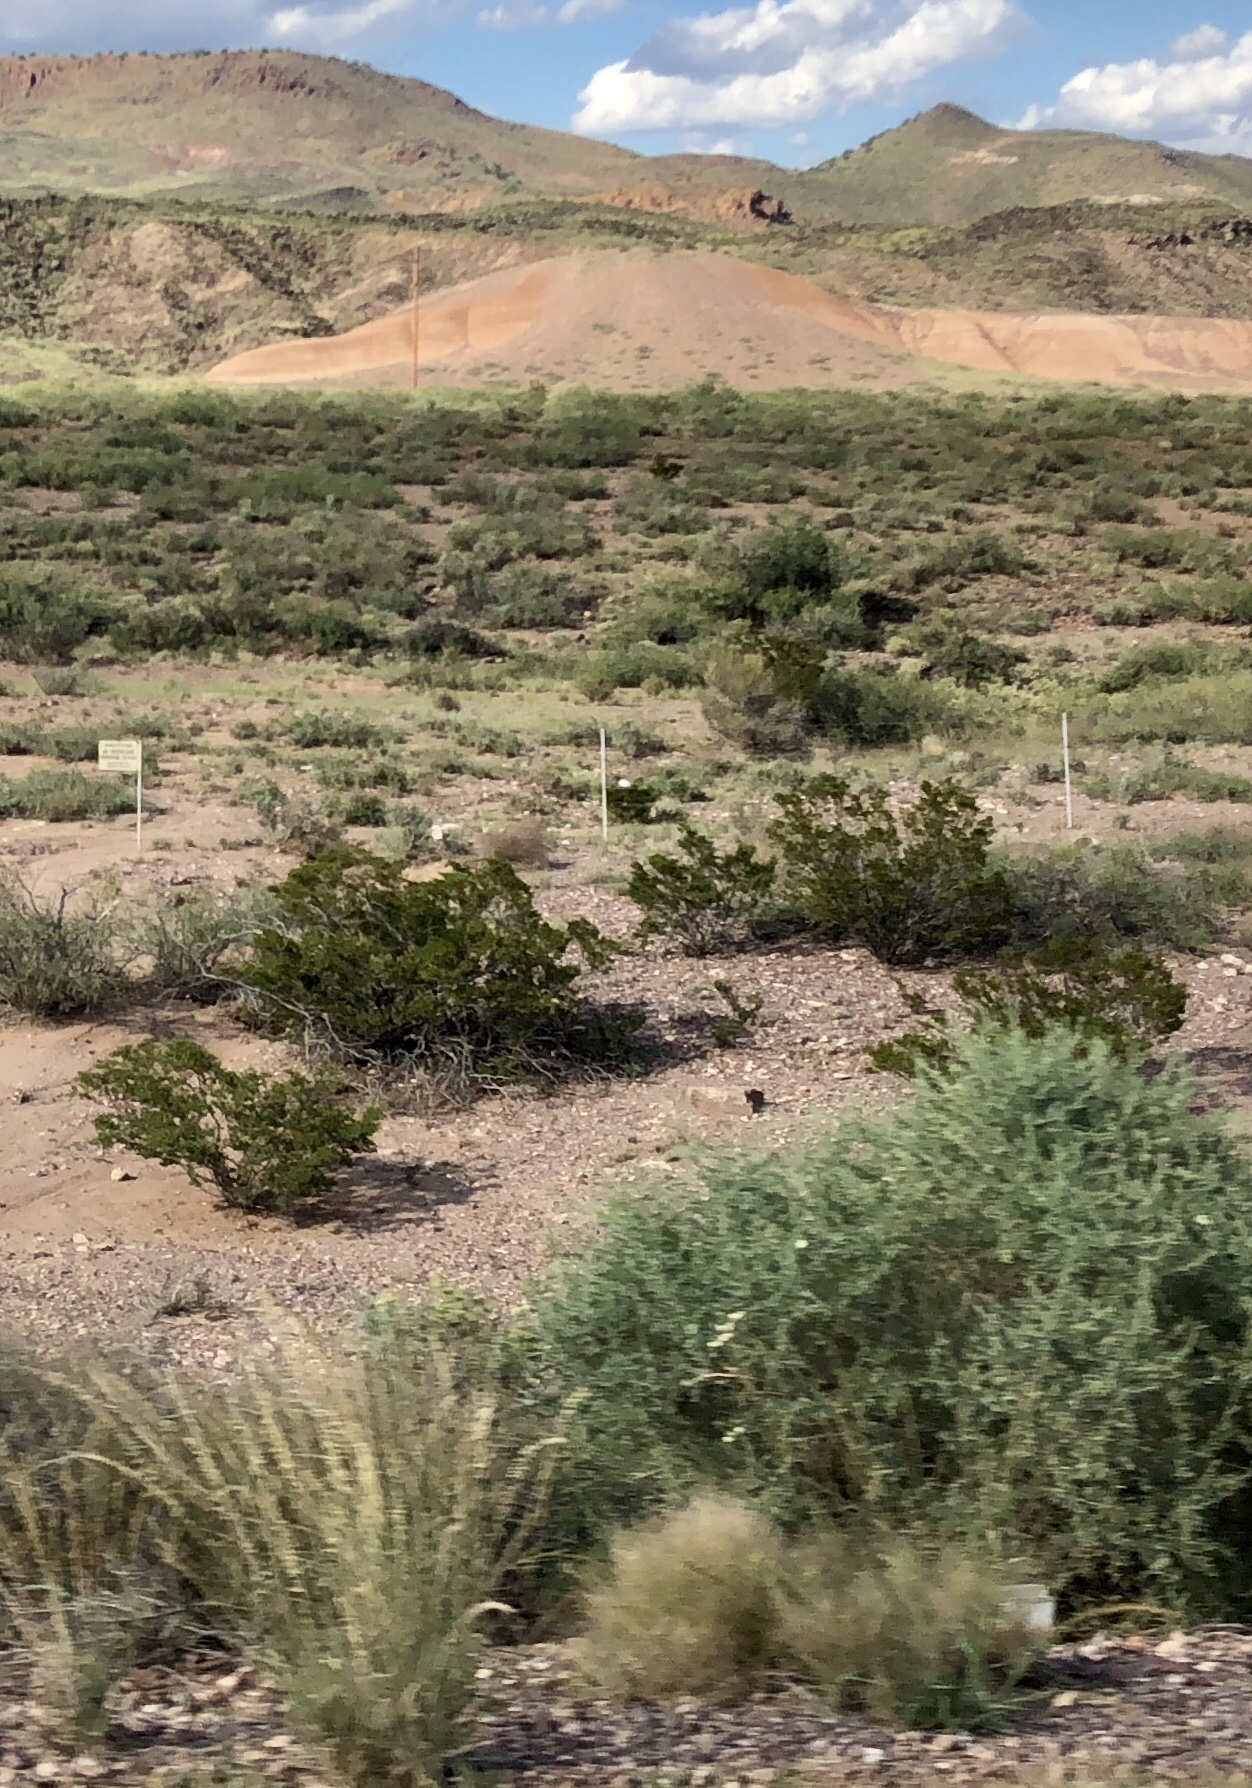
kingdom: Plantae
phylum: Tracheophyta
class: Magnoliopsida
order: Zygophyllales
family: Zygophyllaceae
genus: Larrea
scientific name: Larrea tridentata
